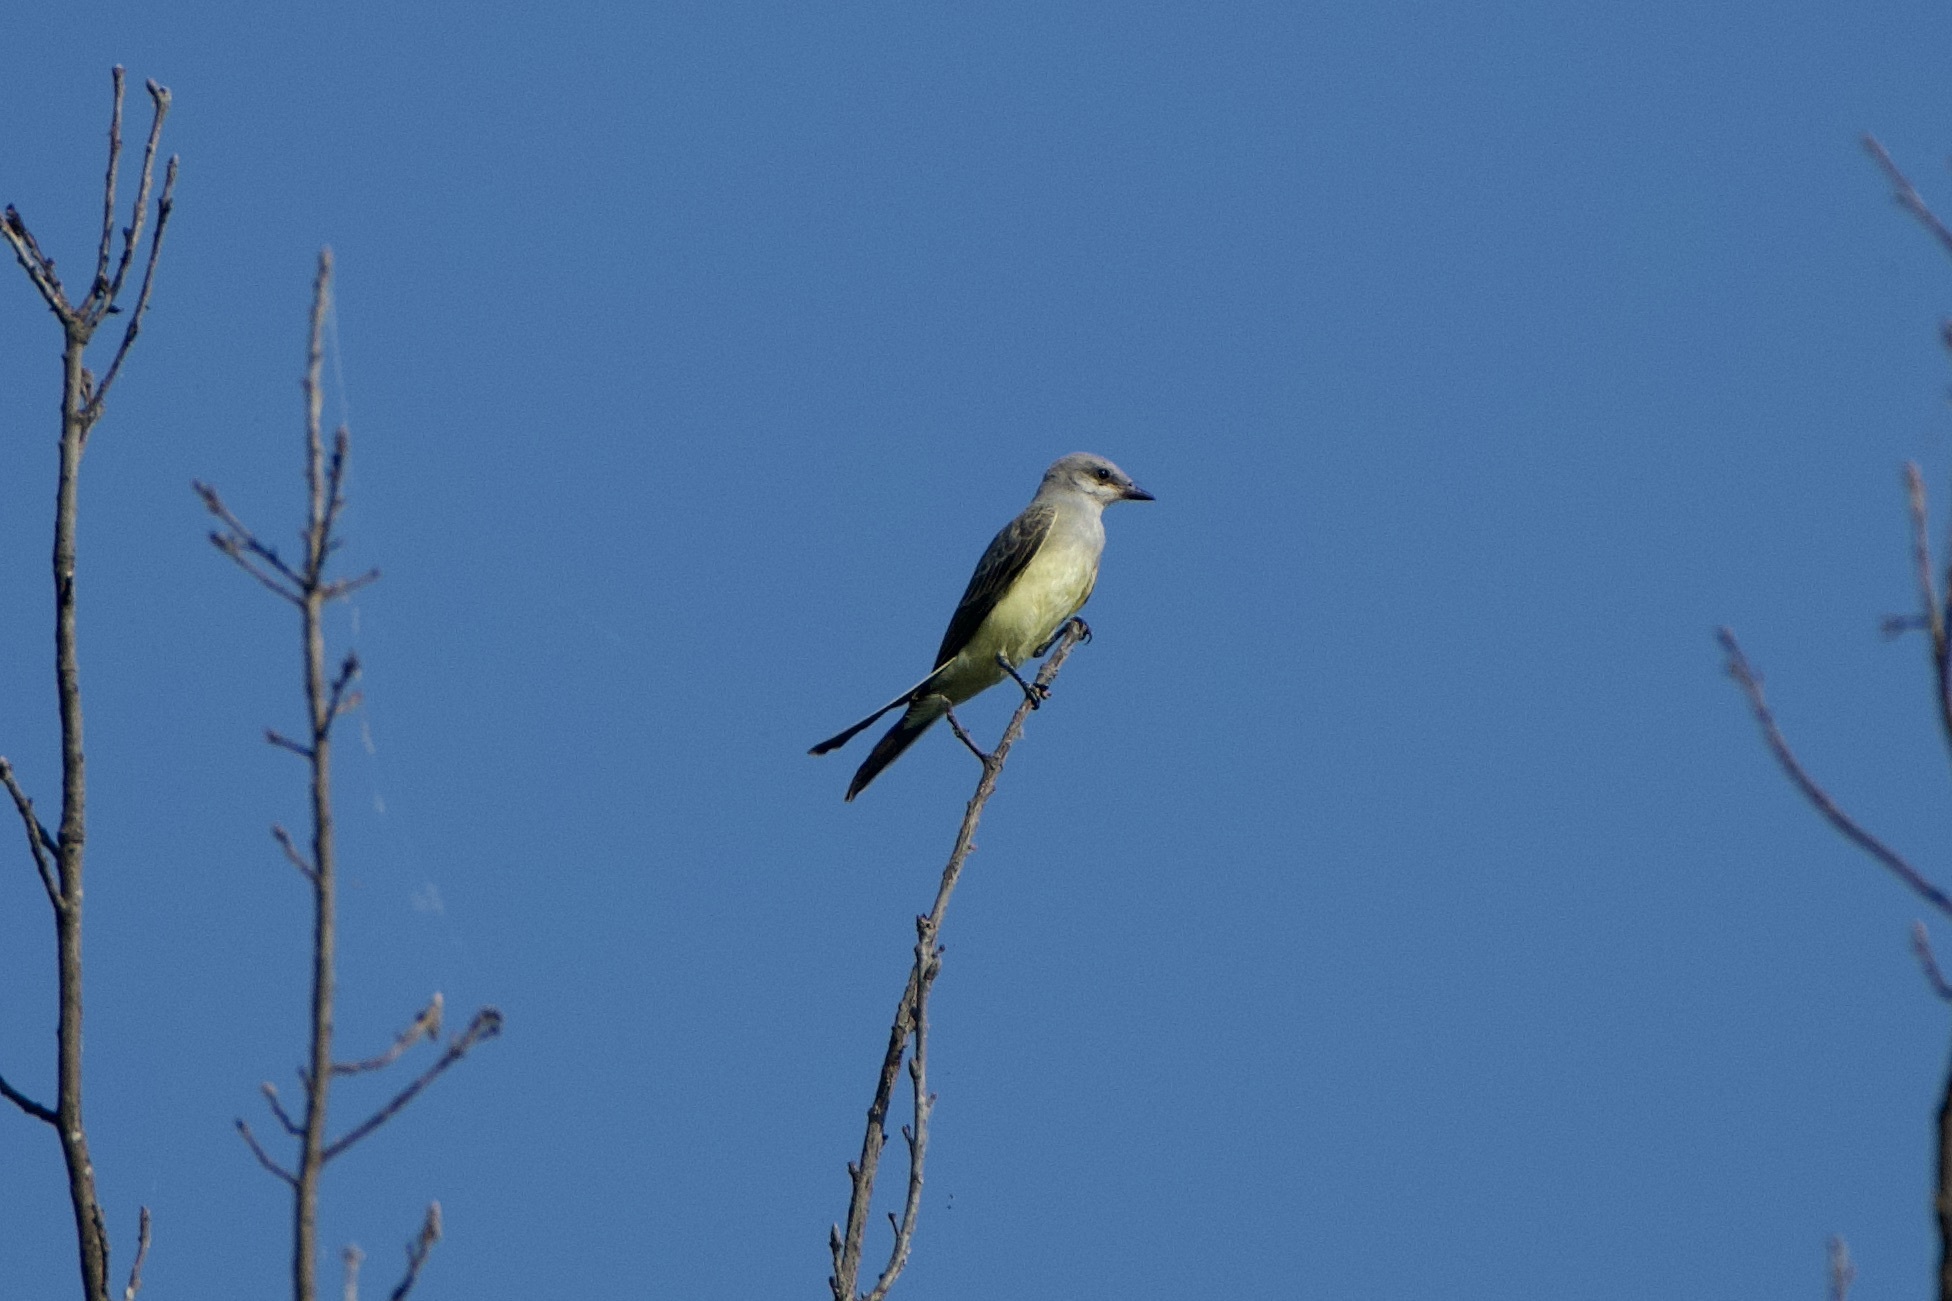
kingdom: Animalia
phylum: Chordata
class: Aves
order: Passeriformes
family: Tyrannidae
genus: Tyrannus
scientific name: Tyrannus verticalis
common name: Western kingbird
